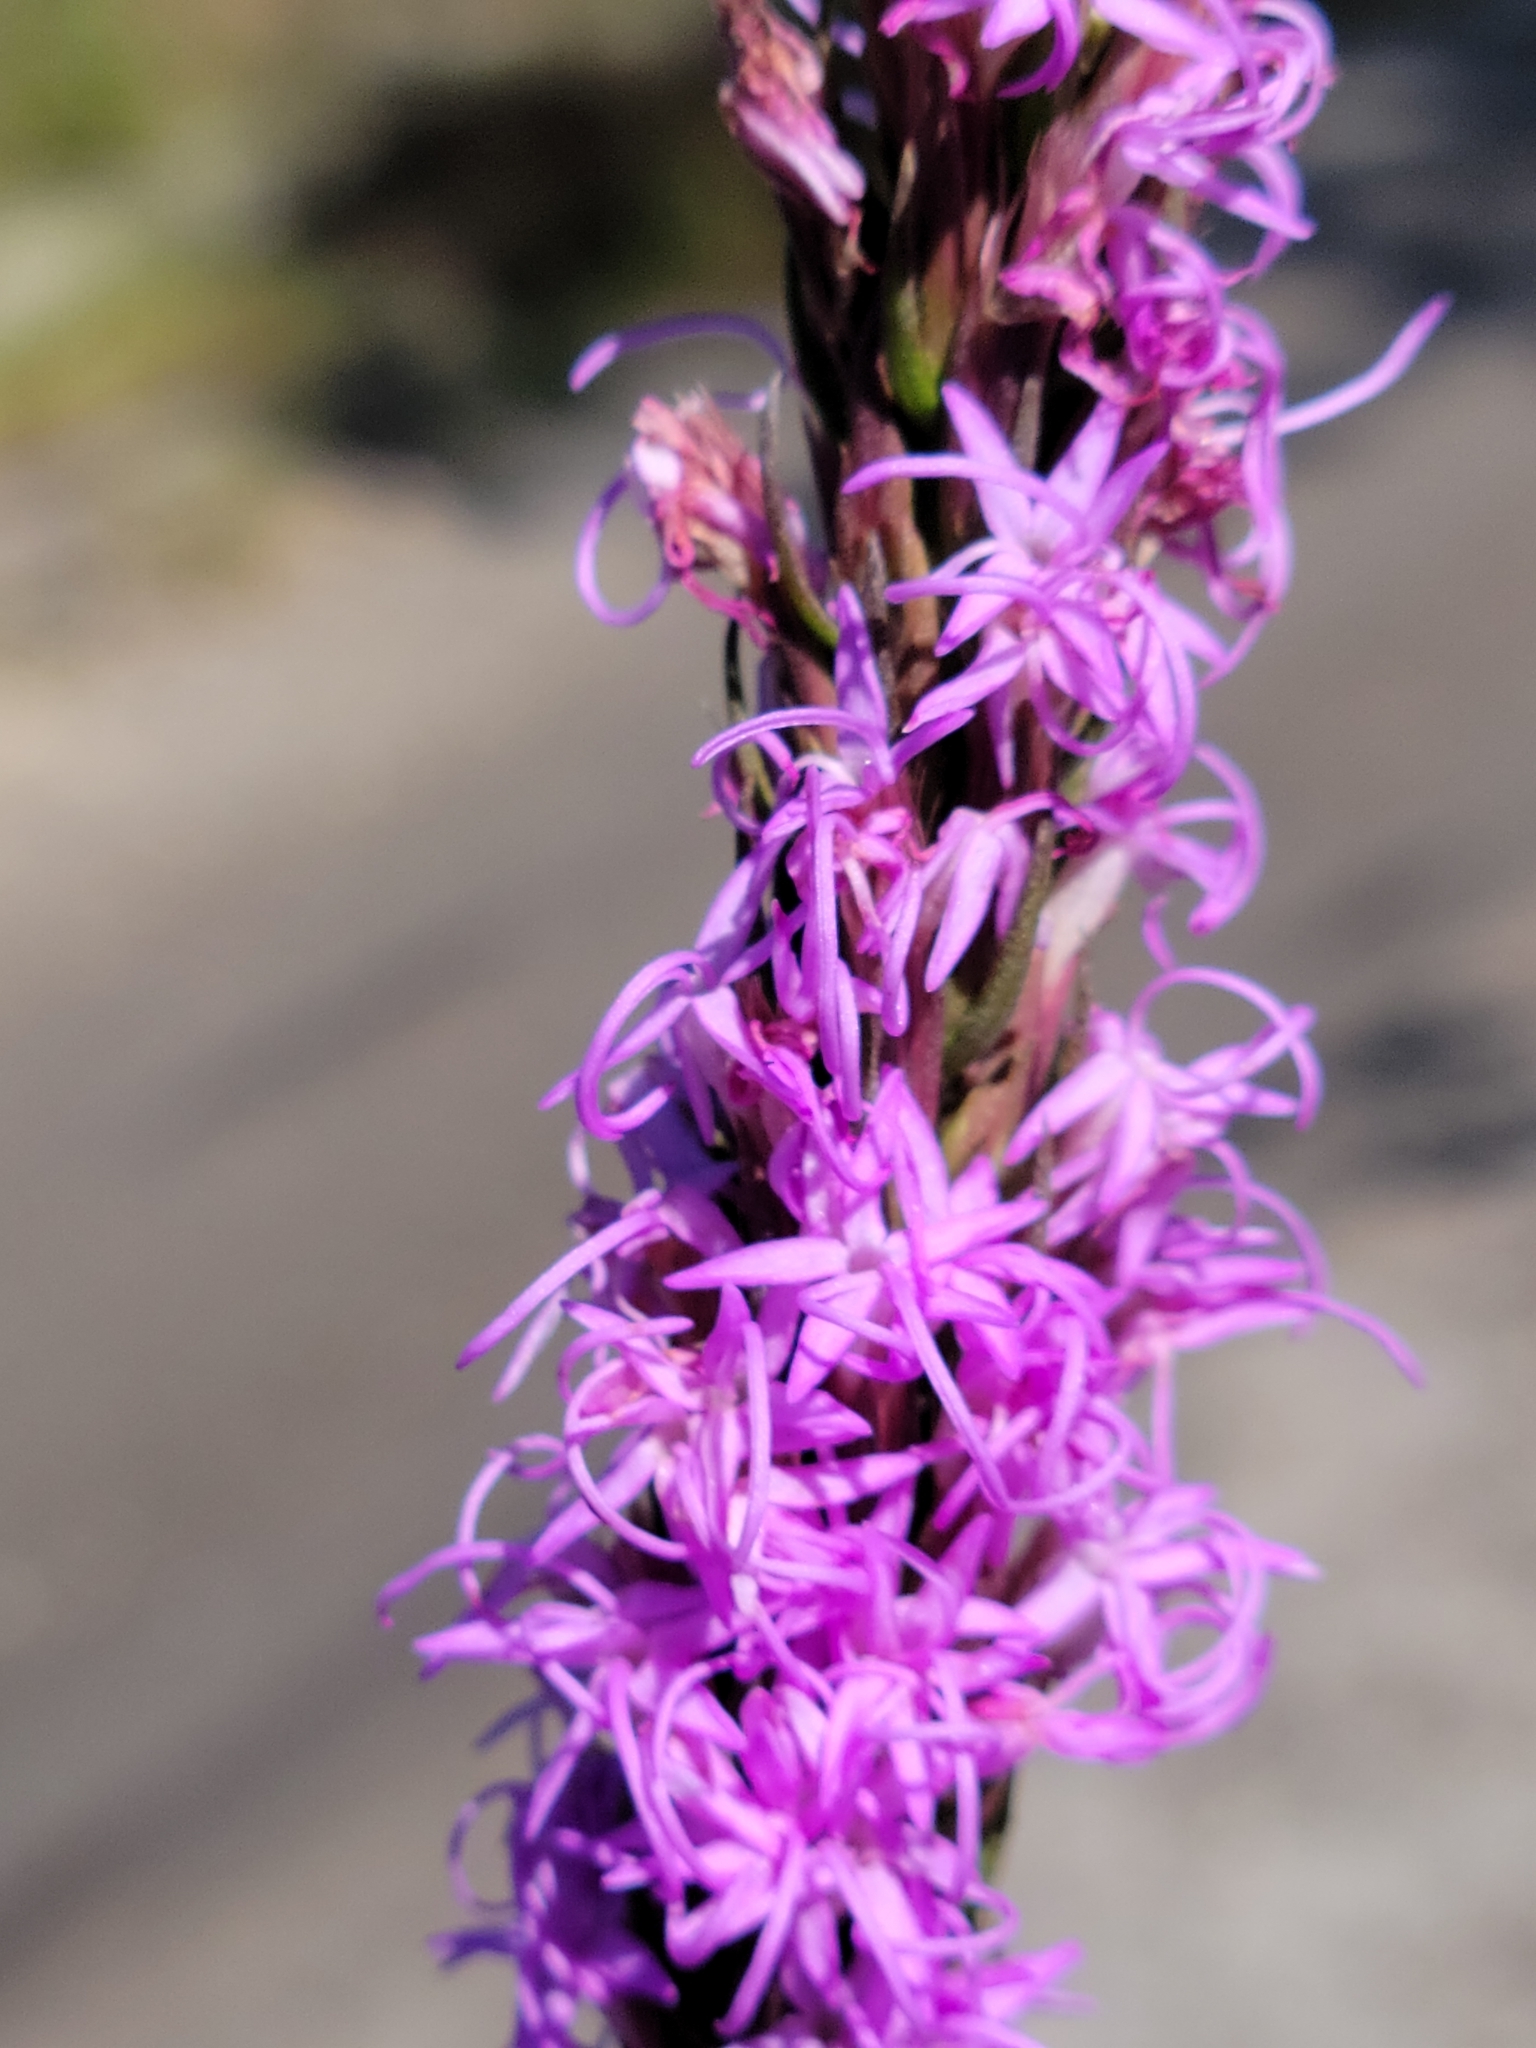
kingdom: Plantae
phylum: Tracheophyta
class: Magnoliopsida
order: Asterales
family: Asteraceae
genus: Liatris
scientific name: Liatris chapmanii
